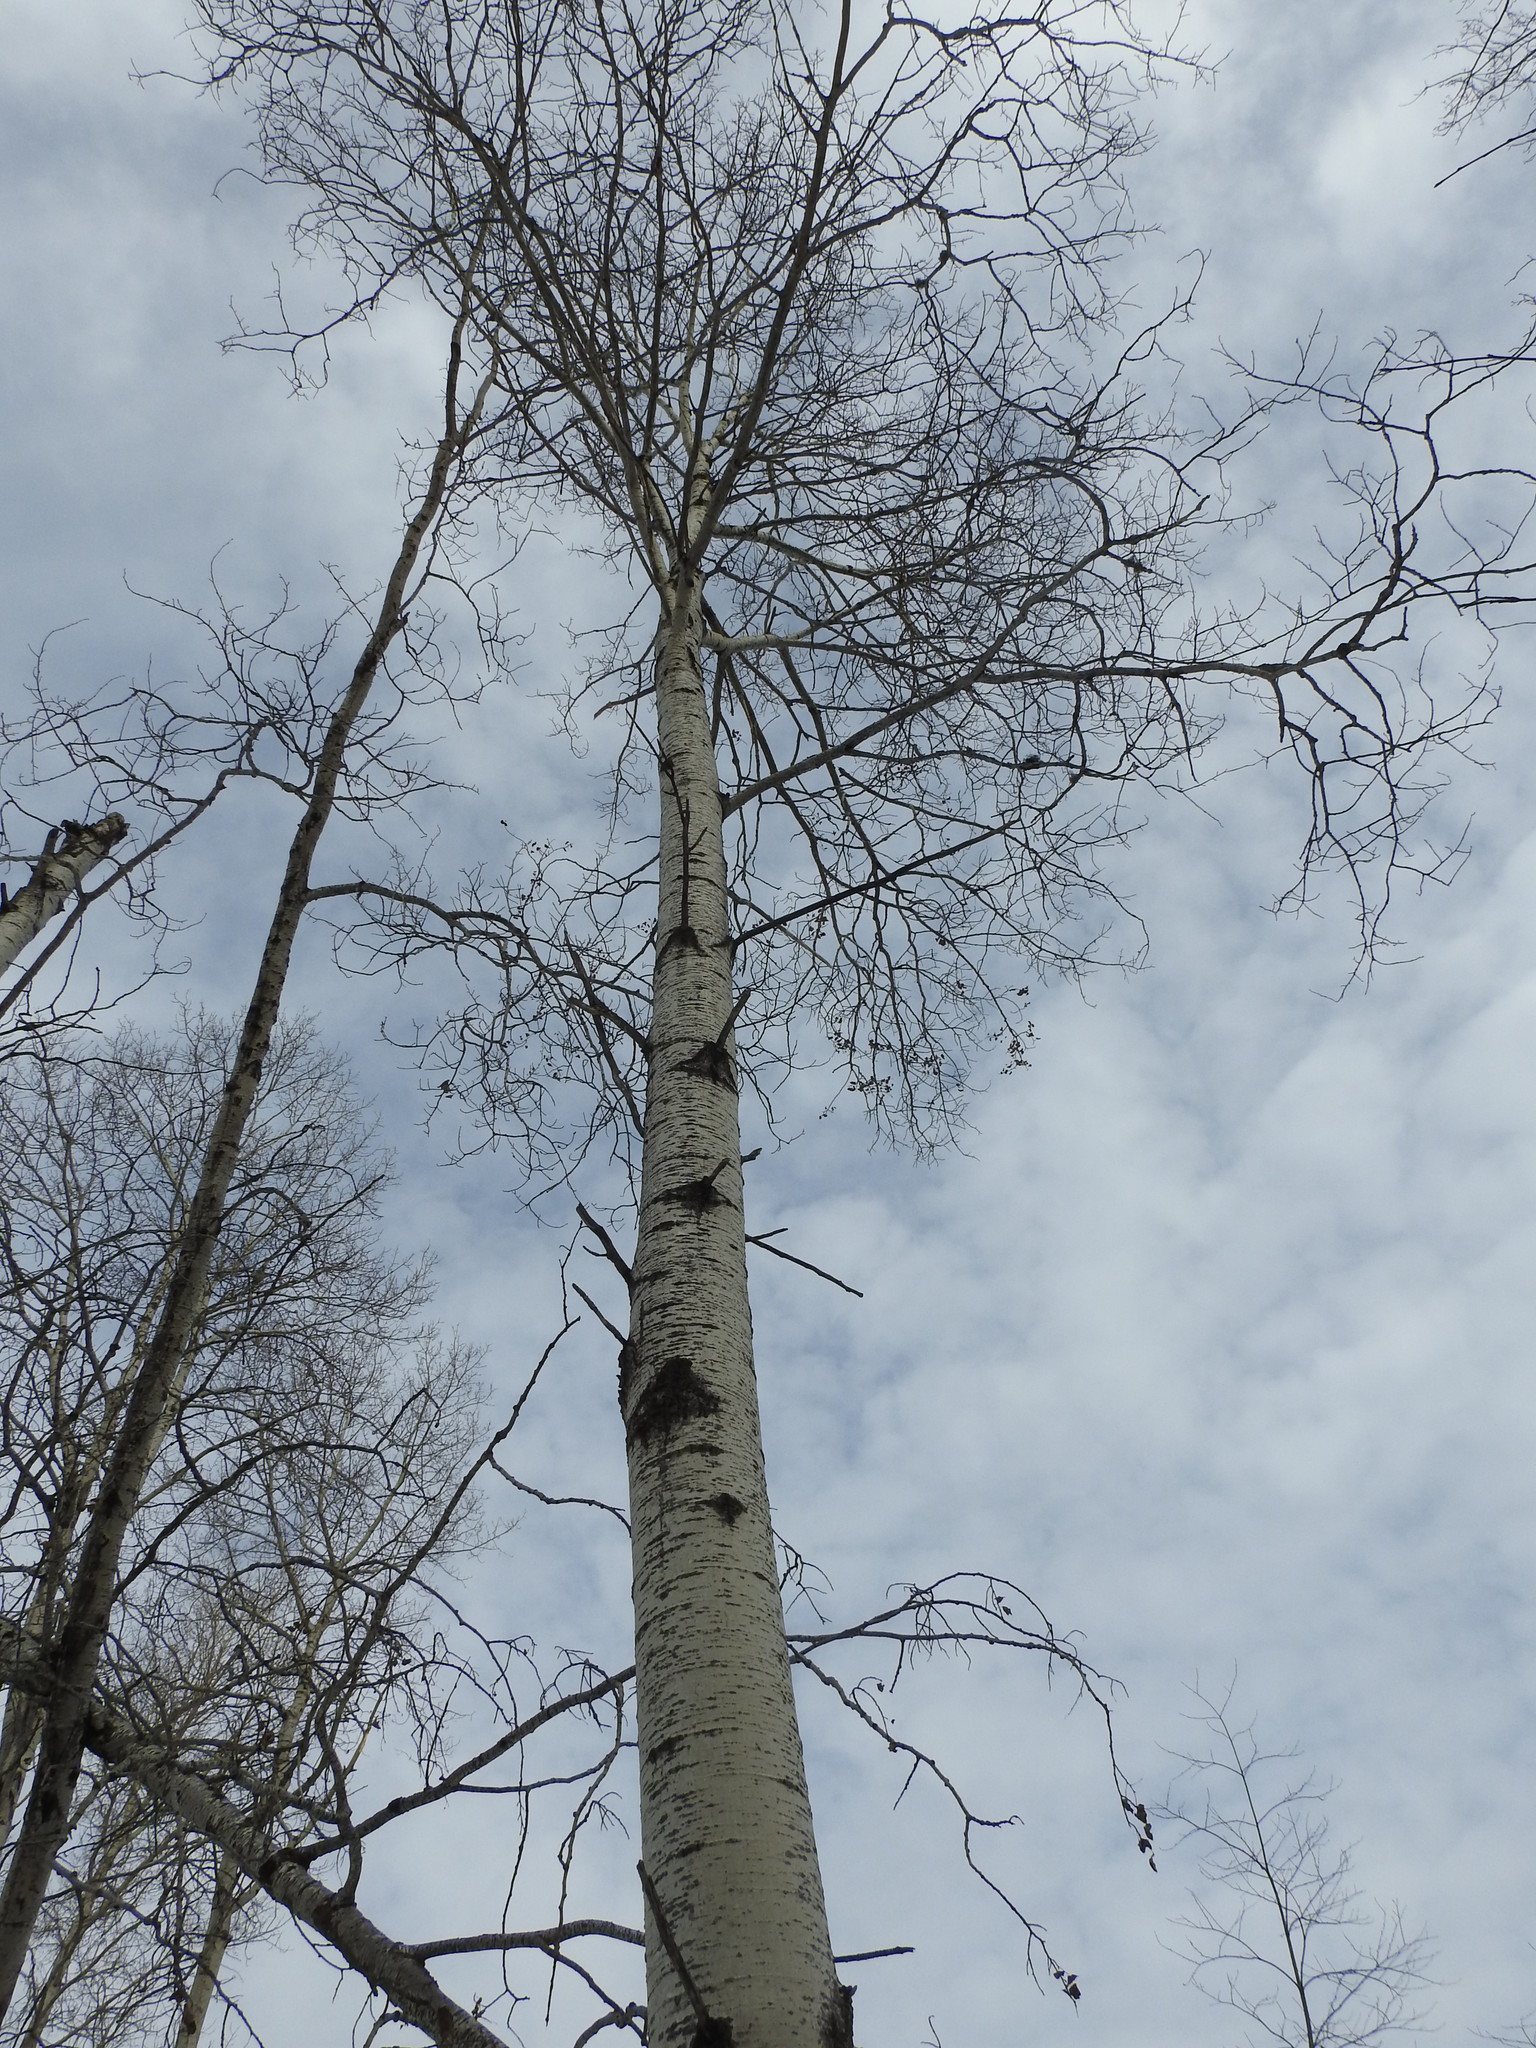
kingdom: Plantae
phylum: Tracheophyta
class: Magnoliopsida
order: Malpighiales
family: Salicaceae
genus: Populus
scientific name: Populus tremuloides
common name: Quaking aspen
